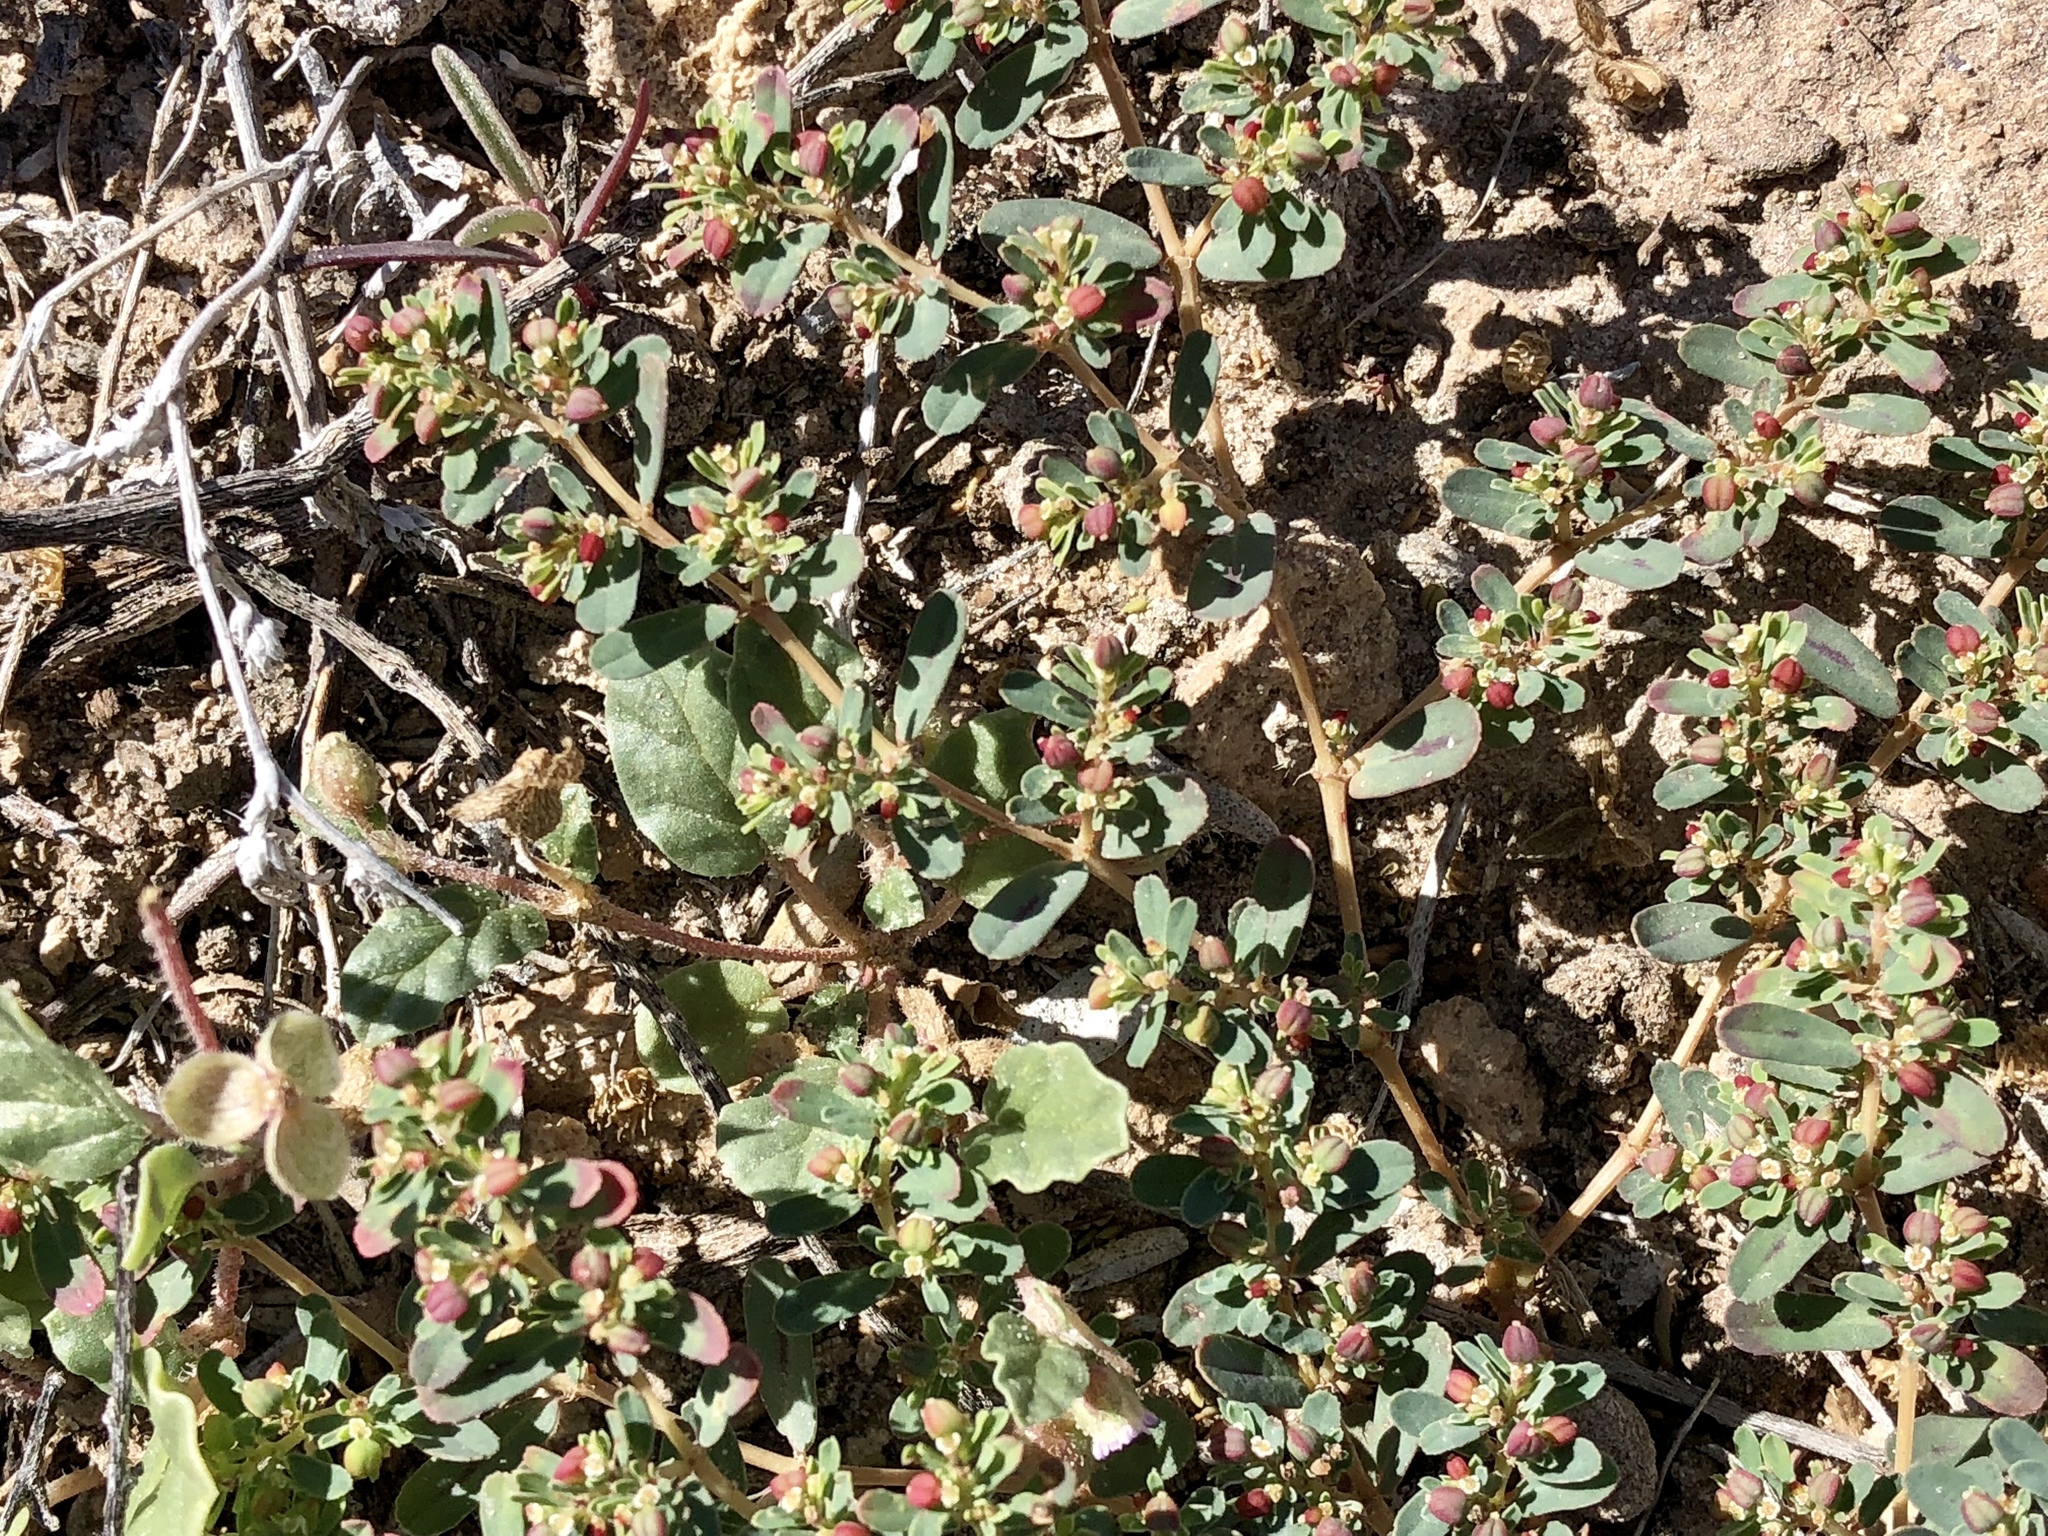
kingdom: Plantae
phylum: Tracheophyta
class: Magnoliopsida
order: Malpighiales
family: Euphorbiaceae
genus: Euphorbia
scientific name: Euphorbia serpillifolia
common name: Thyme-leaf spurge
